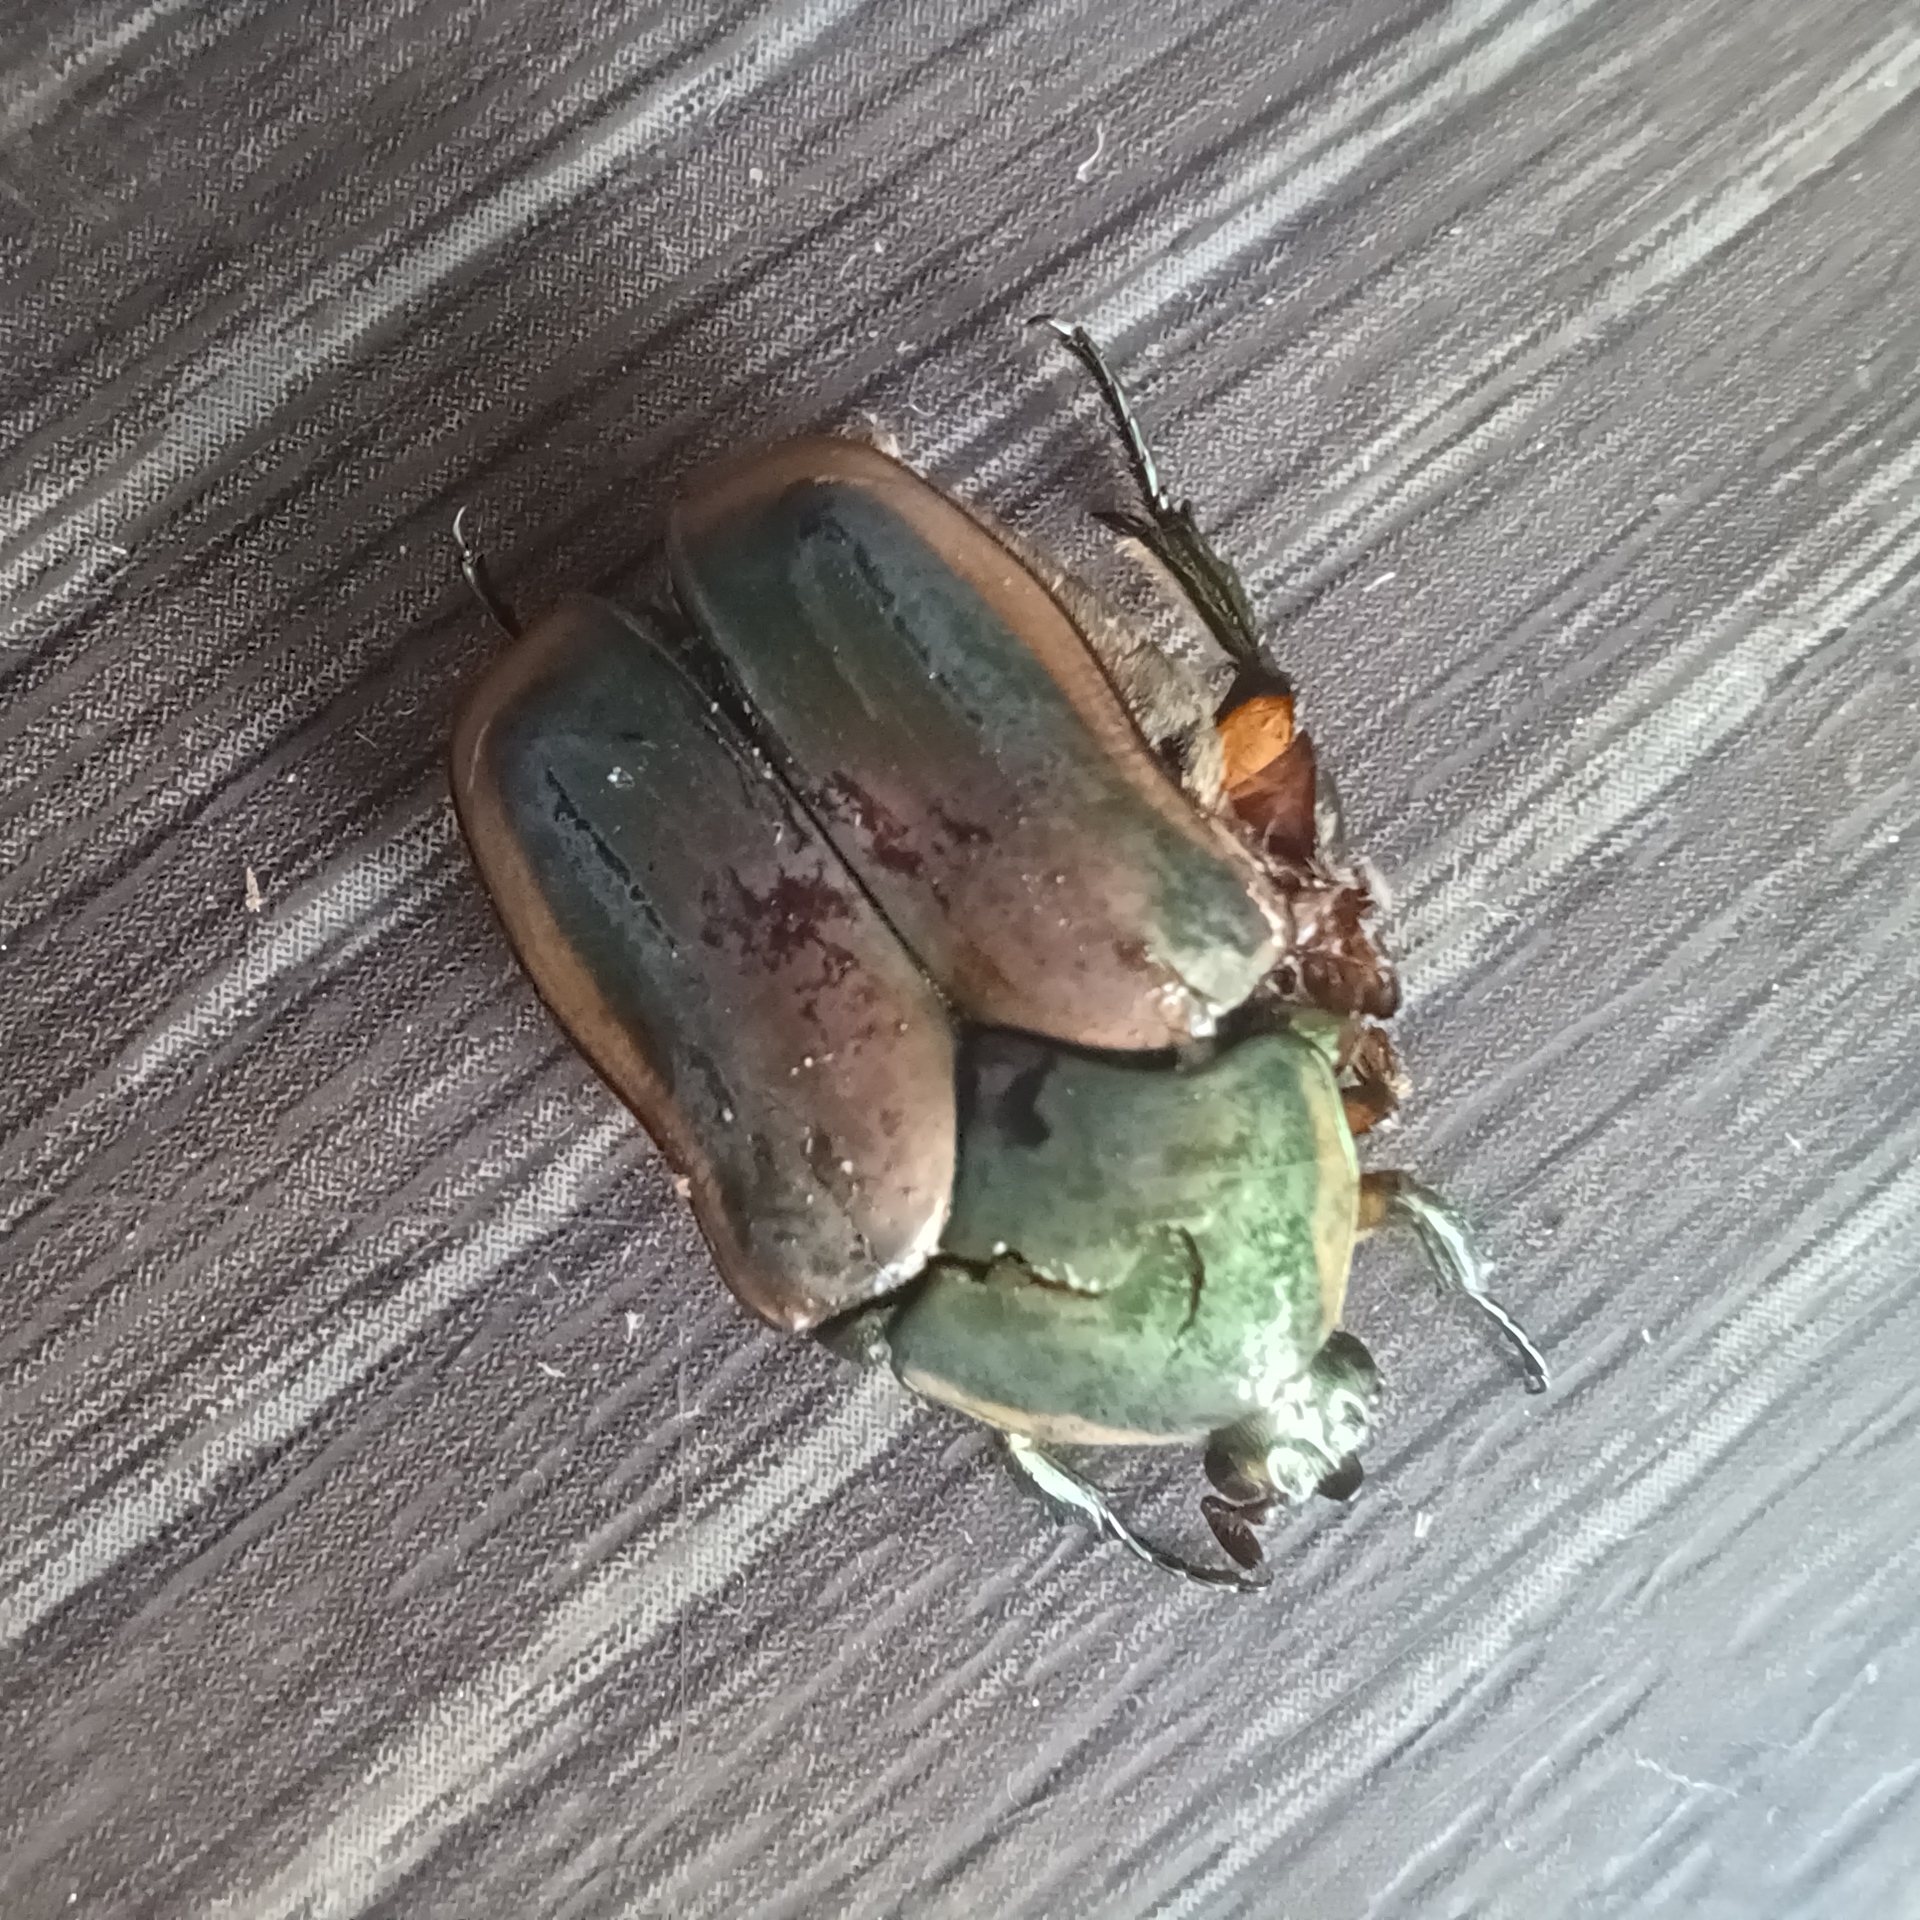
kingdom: Animalia
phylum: Arthropoda
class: Insecta
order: Coleoptera
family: Scarabaeidae
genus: Cotinis
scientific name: Cotinis nitida
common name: Common green june beetle
